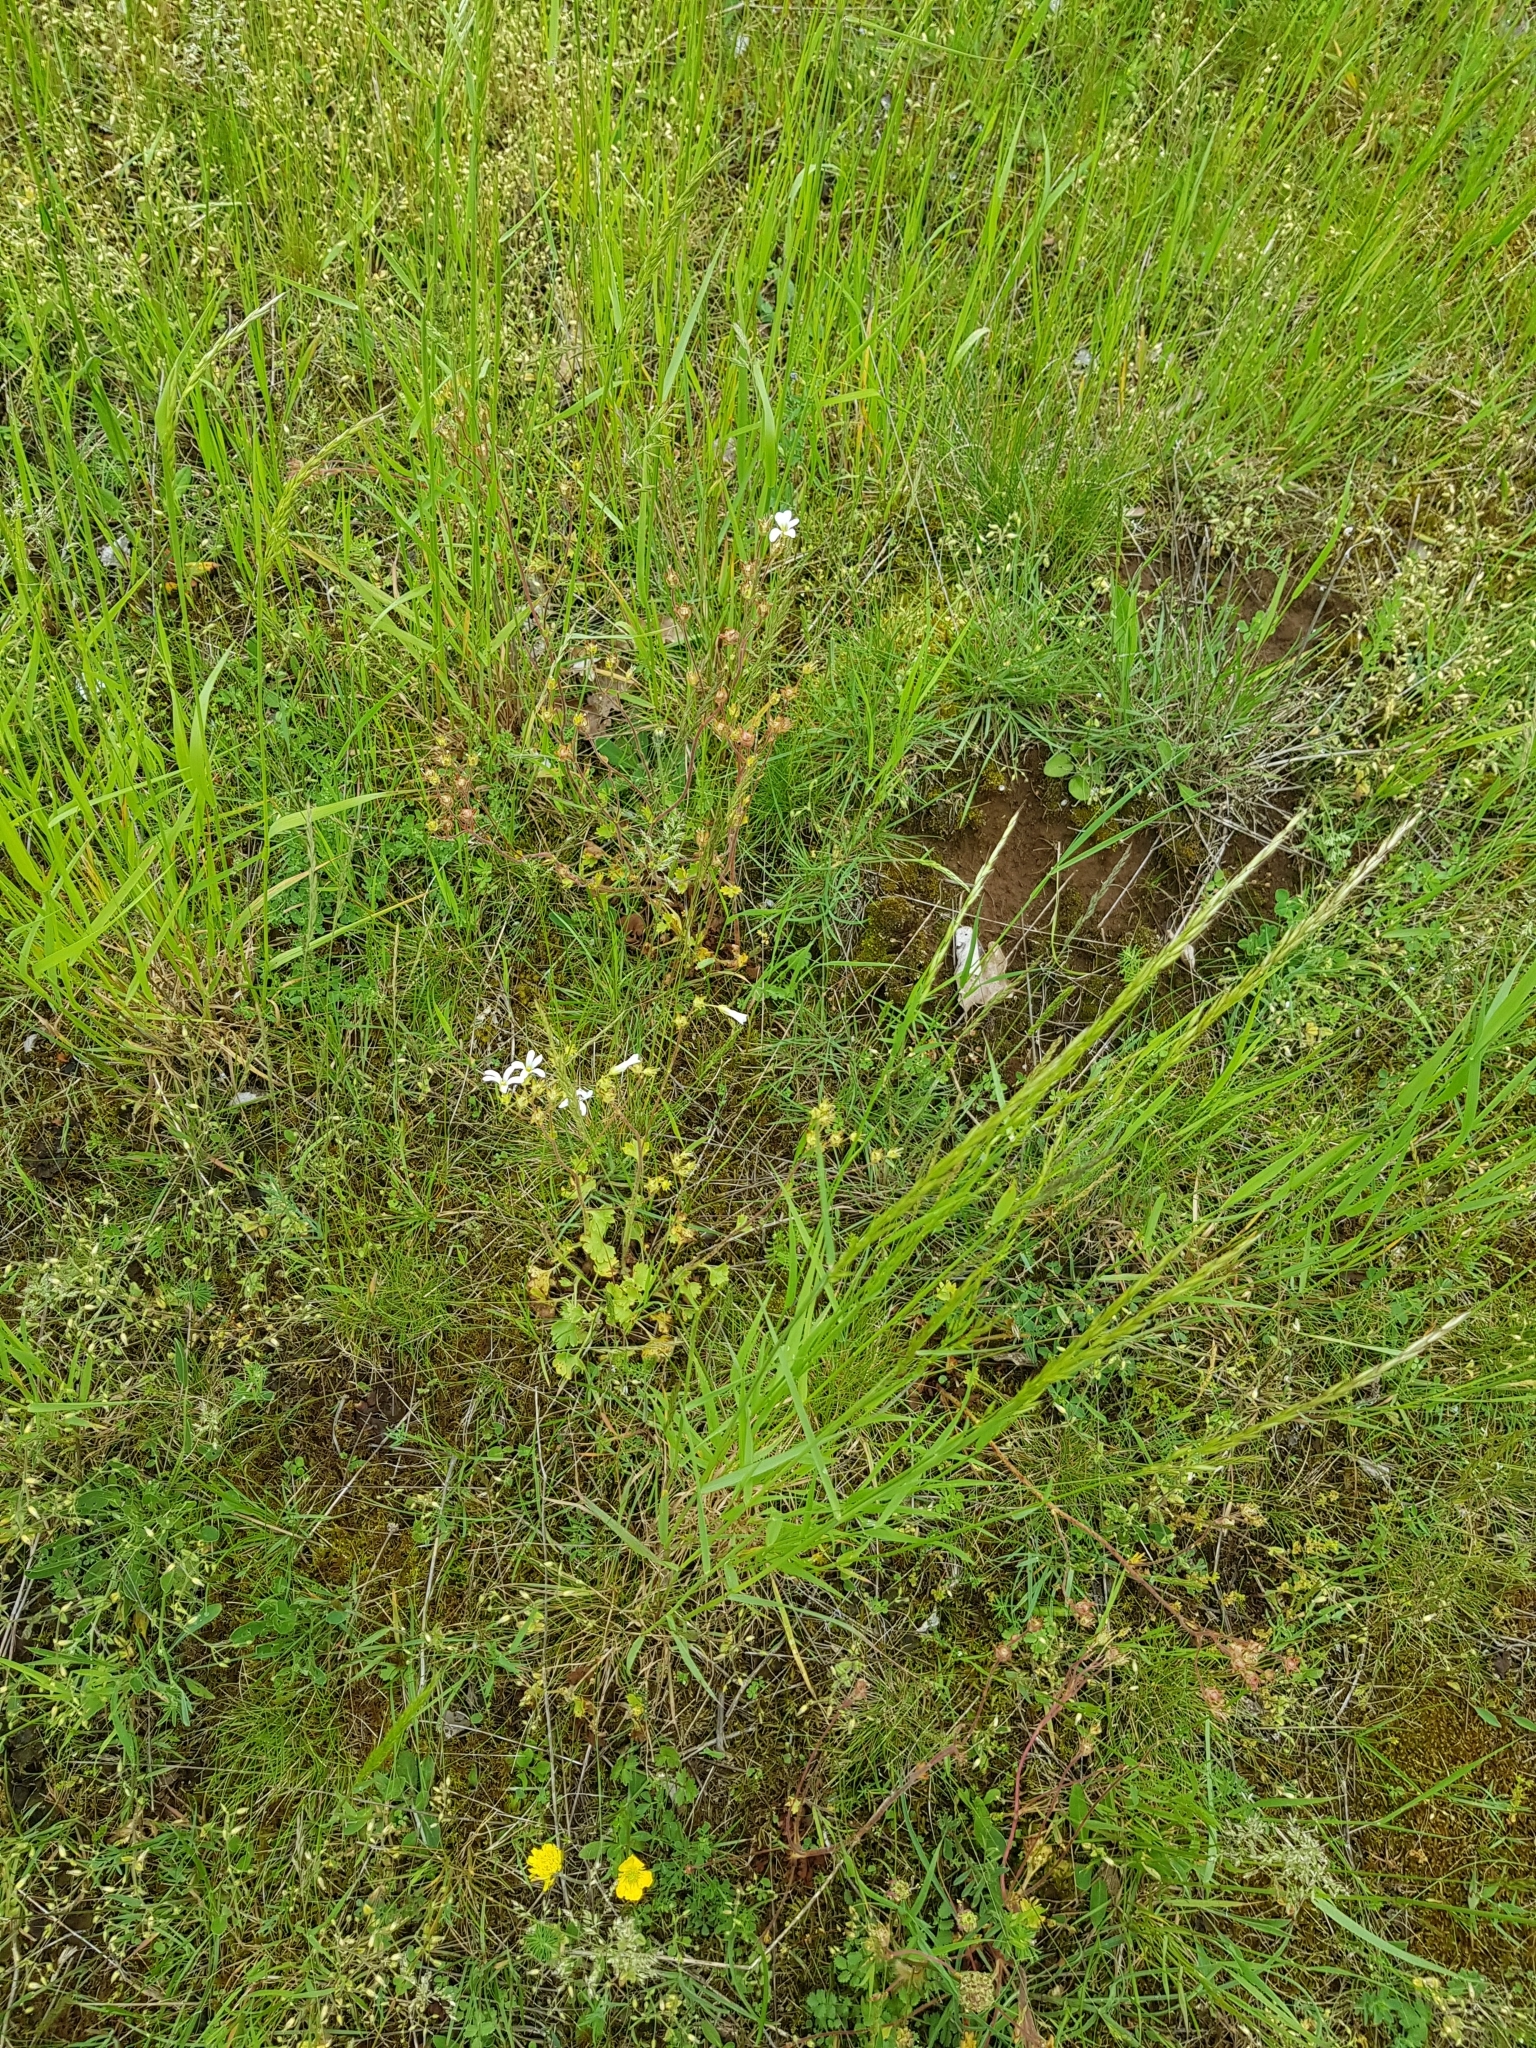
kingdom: Plantae
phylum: Tracheophyta
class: Magnoliopsida
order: Saxifragales
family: Saxifragaceae
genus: Saxifraga
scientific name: Saxifraga granulata
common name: Meadow saxifrage
